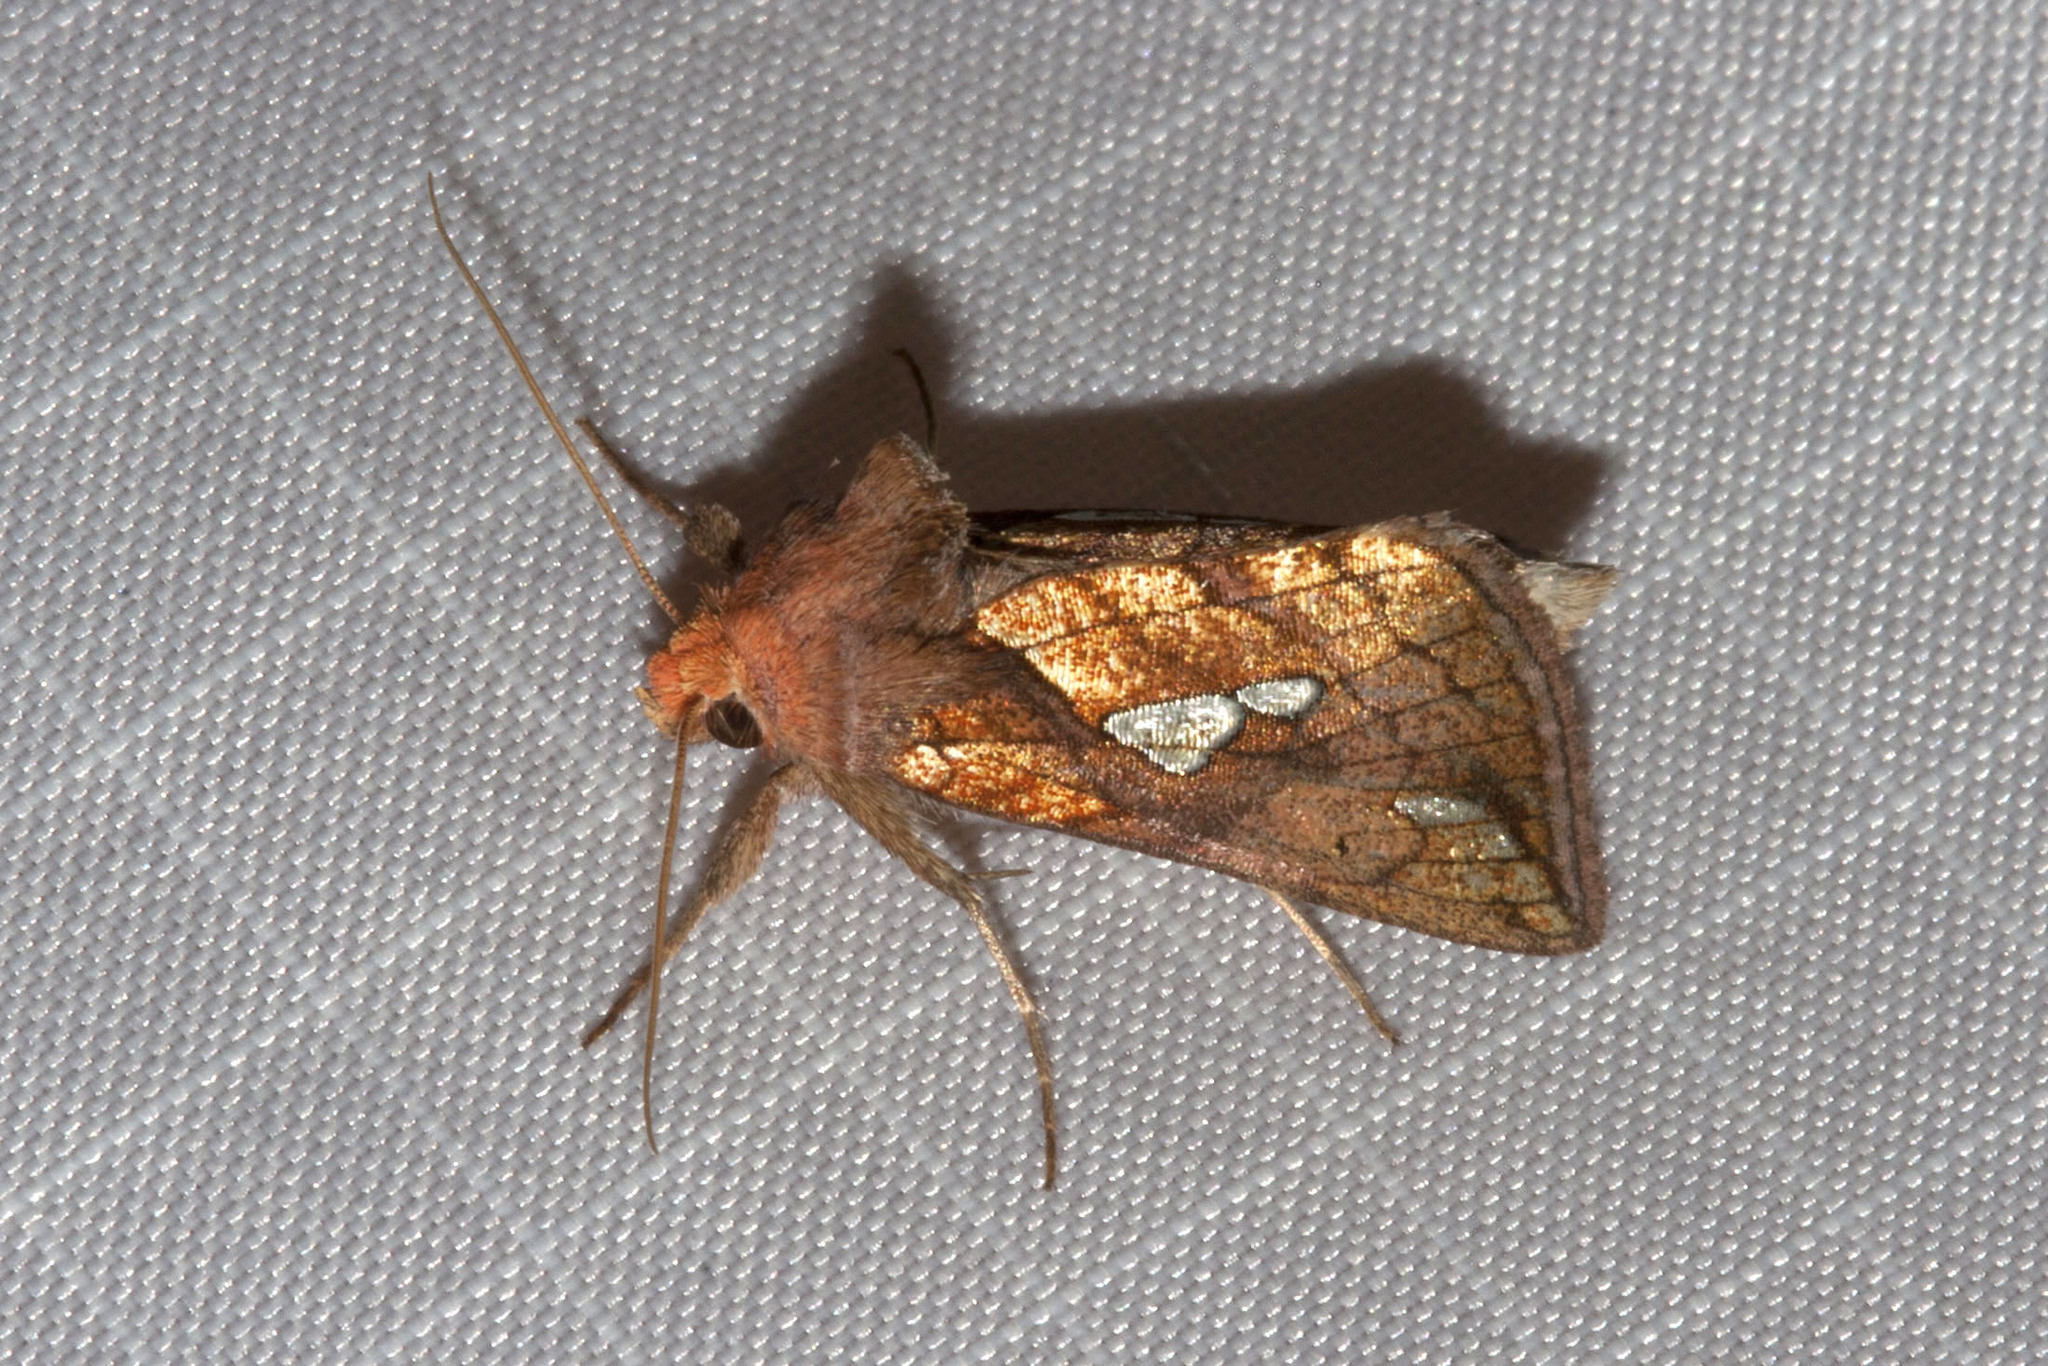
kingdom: Animalia
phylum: Arthropoda
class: Insecta
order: Lepidoptera
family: Noctuidae
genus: Plusia
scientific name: Plusia putnami
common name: Lempke's gold spot
